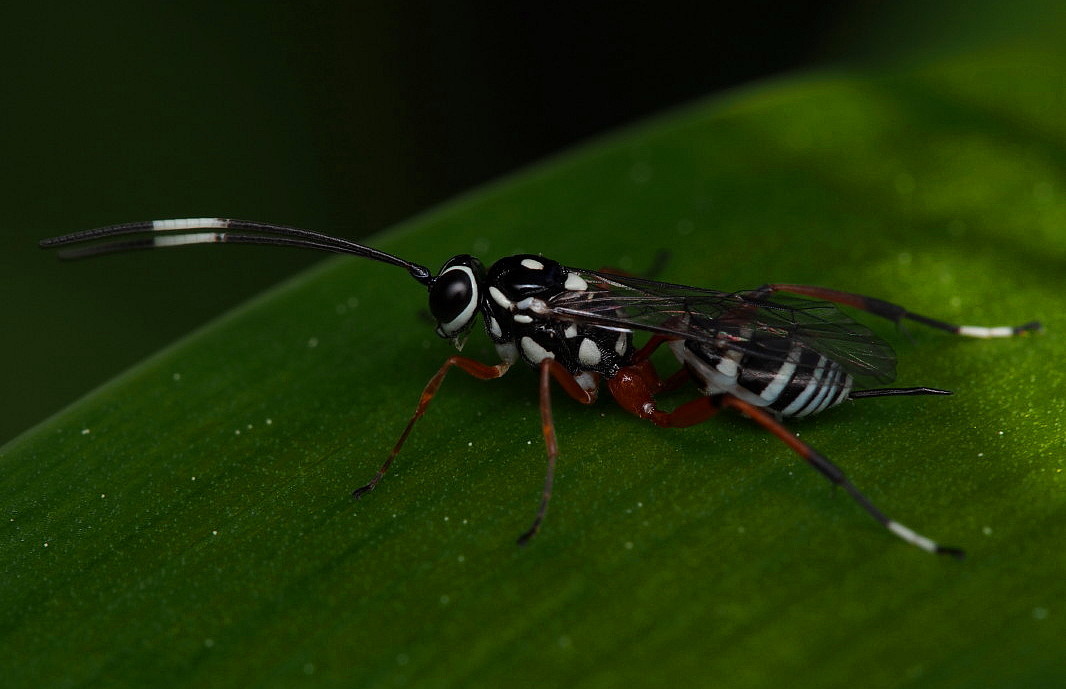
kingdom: Animalia
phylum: Arthropoda
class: Insecta
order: Hymenoptera
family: Ichneumonidae
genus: Glabridorsum
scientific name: Glabridorsum stokesii
